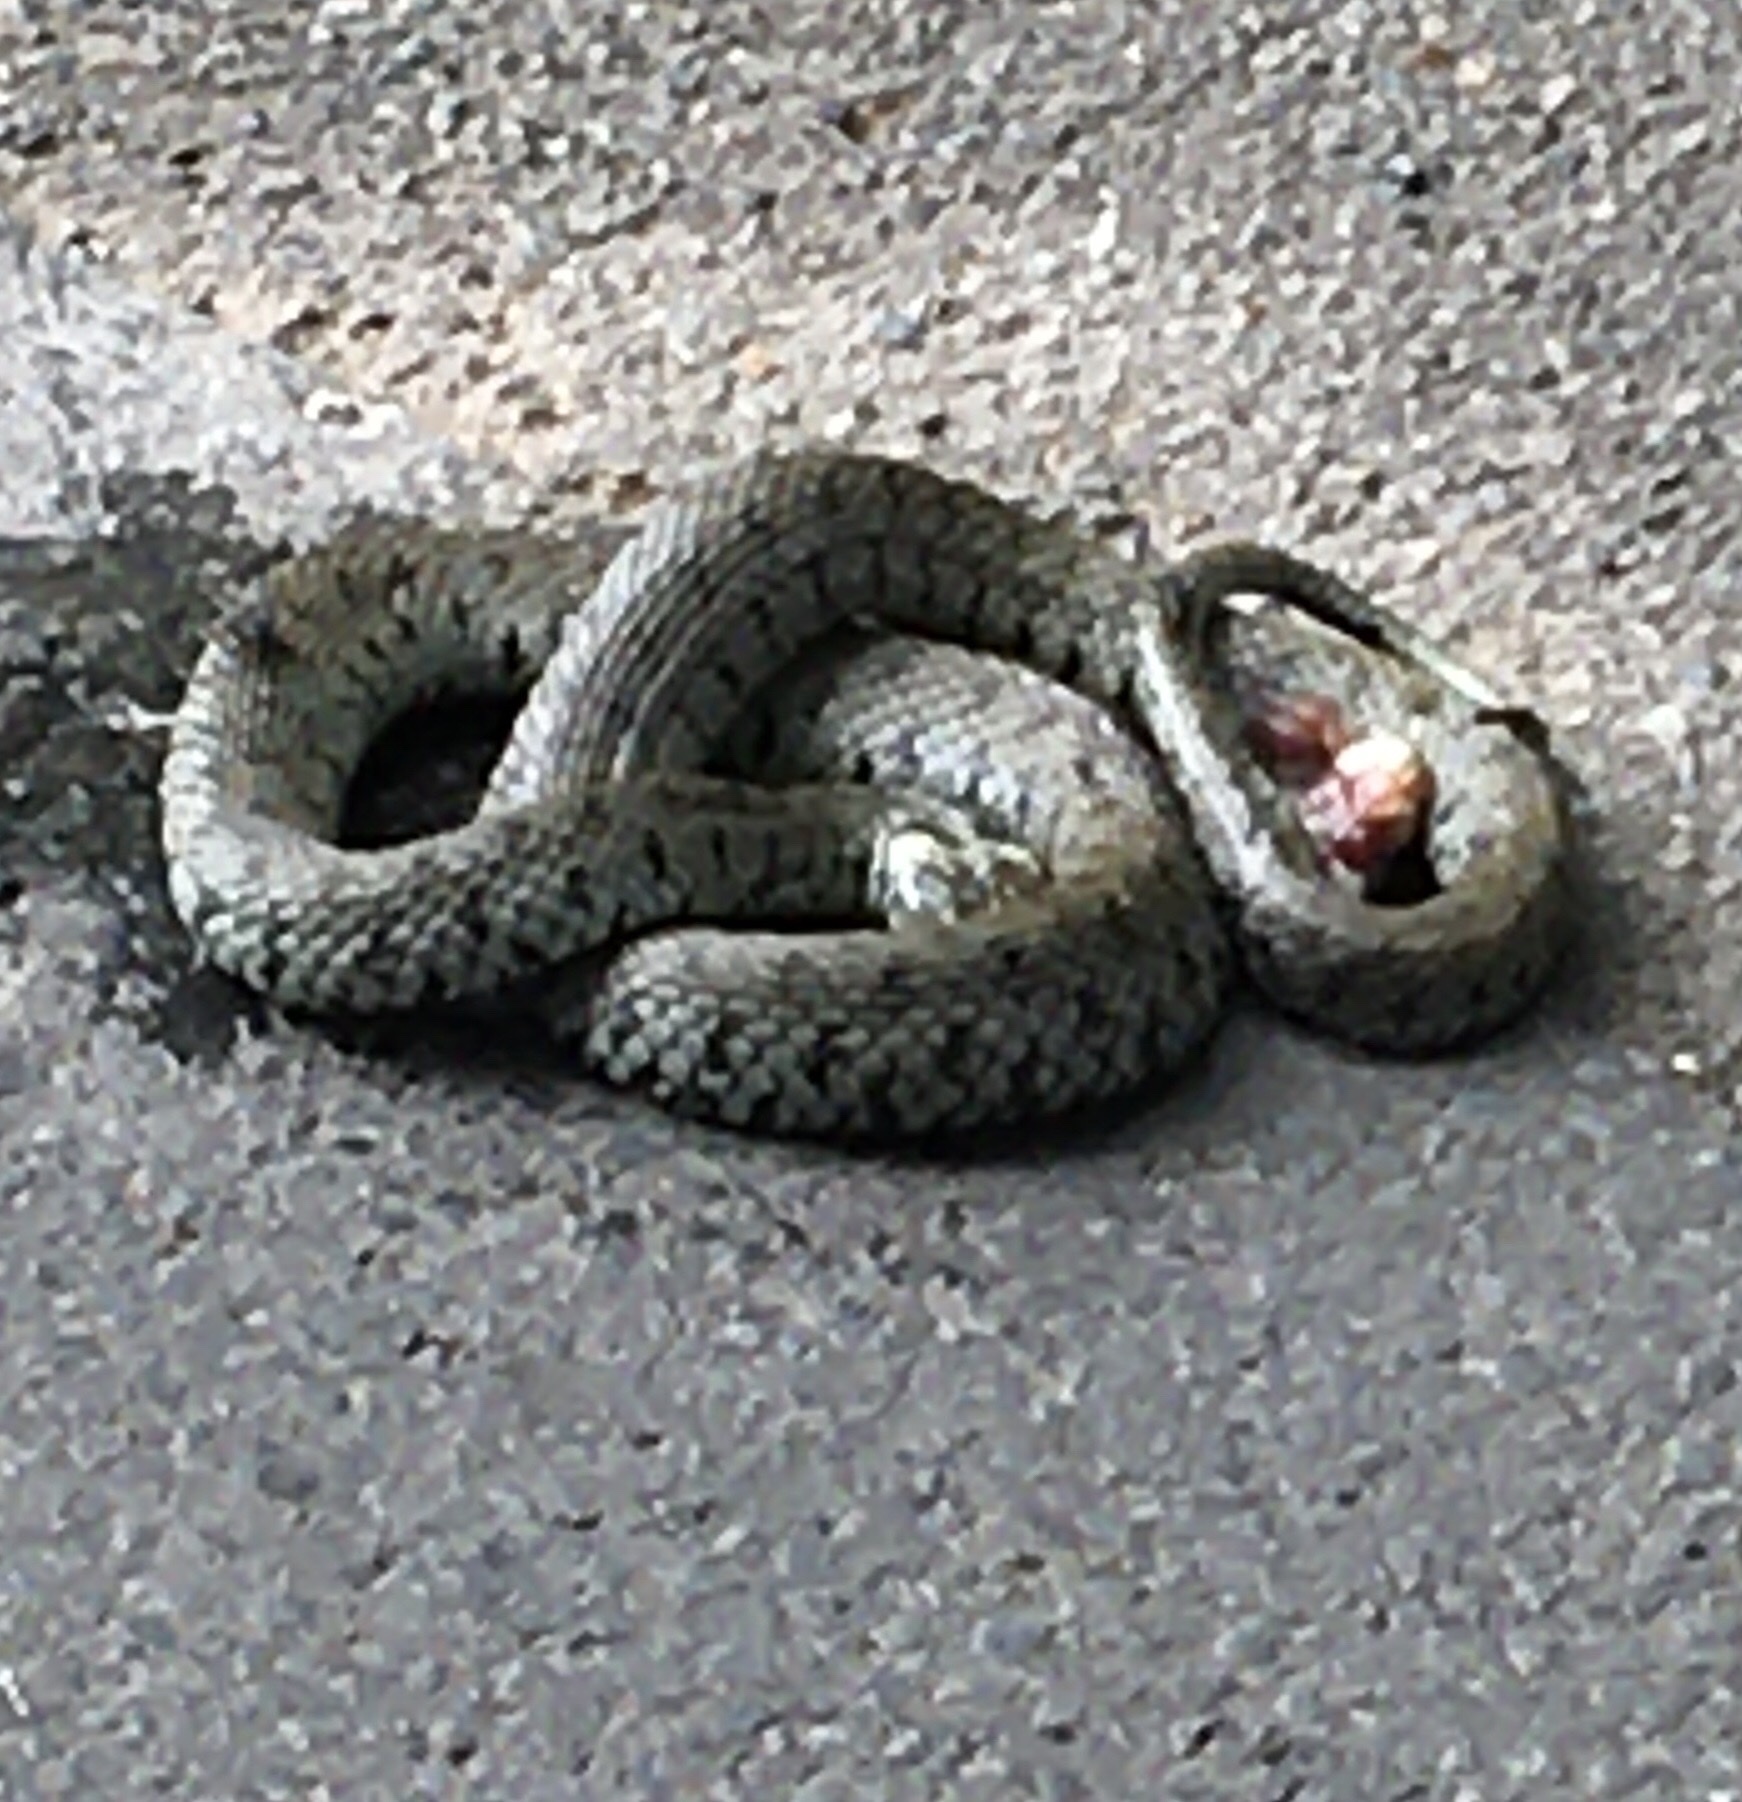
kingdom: Animalia
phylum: Chordata
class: Squamata
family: Colubridae
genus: Natrix
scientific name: Natrix helvetica
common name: Banded grass snake
